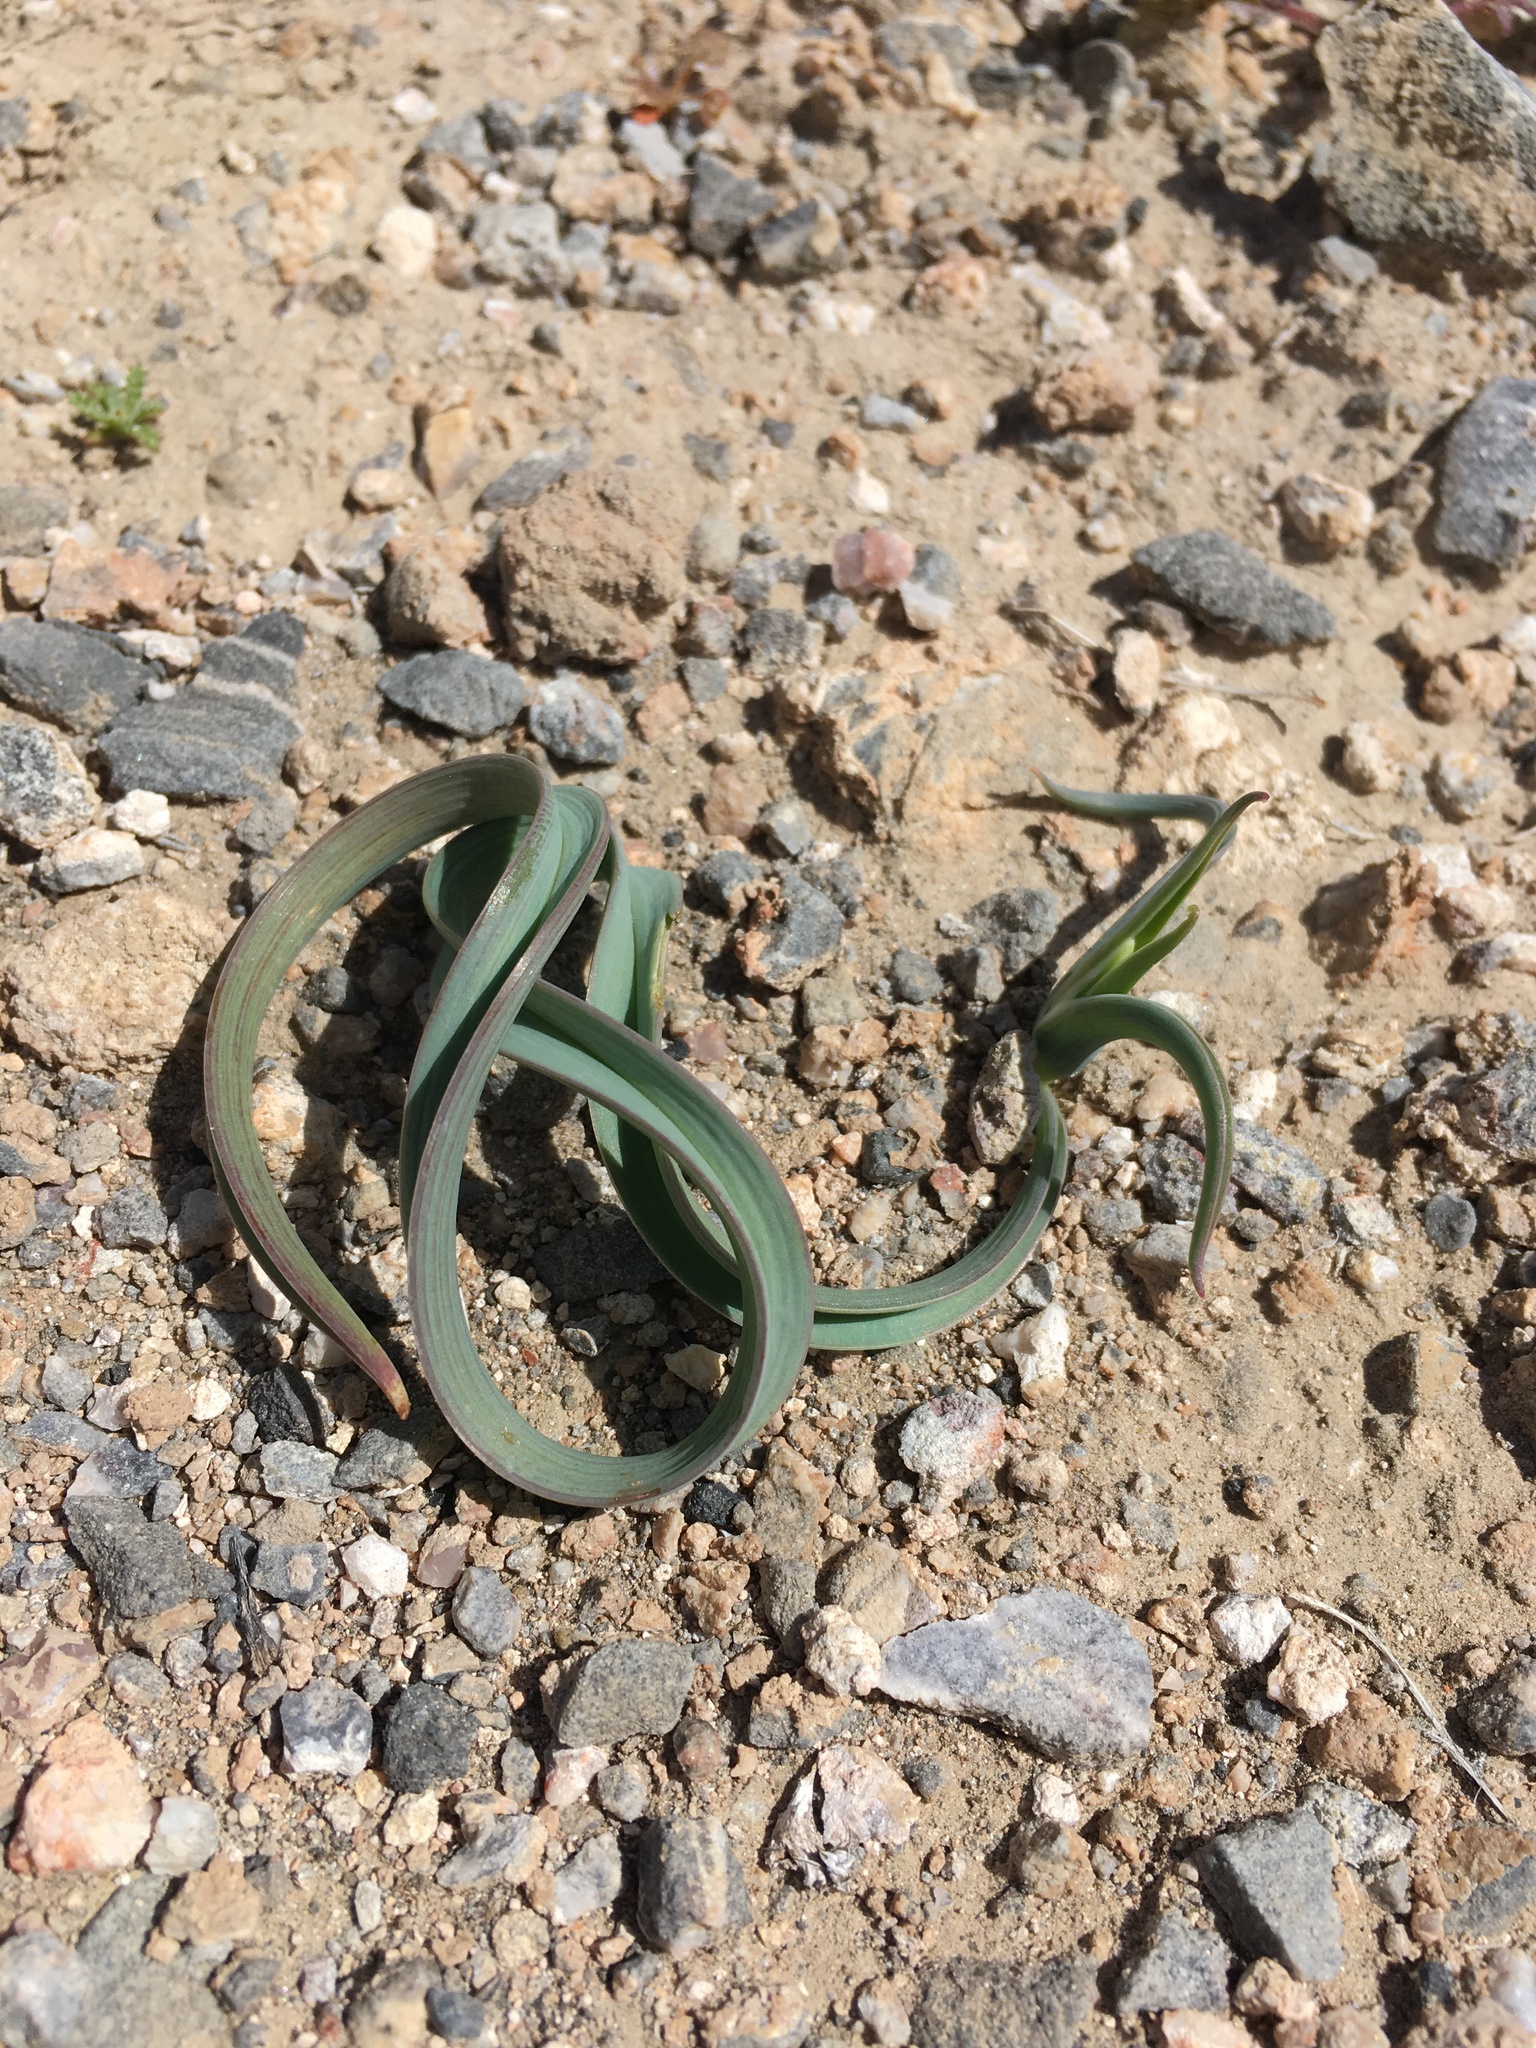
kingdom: Plantae
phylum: Tracheophyta
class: Liliopsida
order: Liliales
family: Liliaceae
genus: Calochortus
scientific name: Calochortus kennedyi
